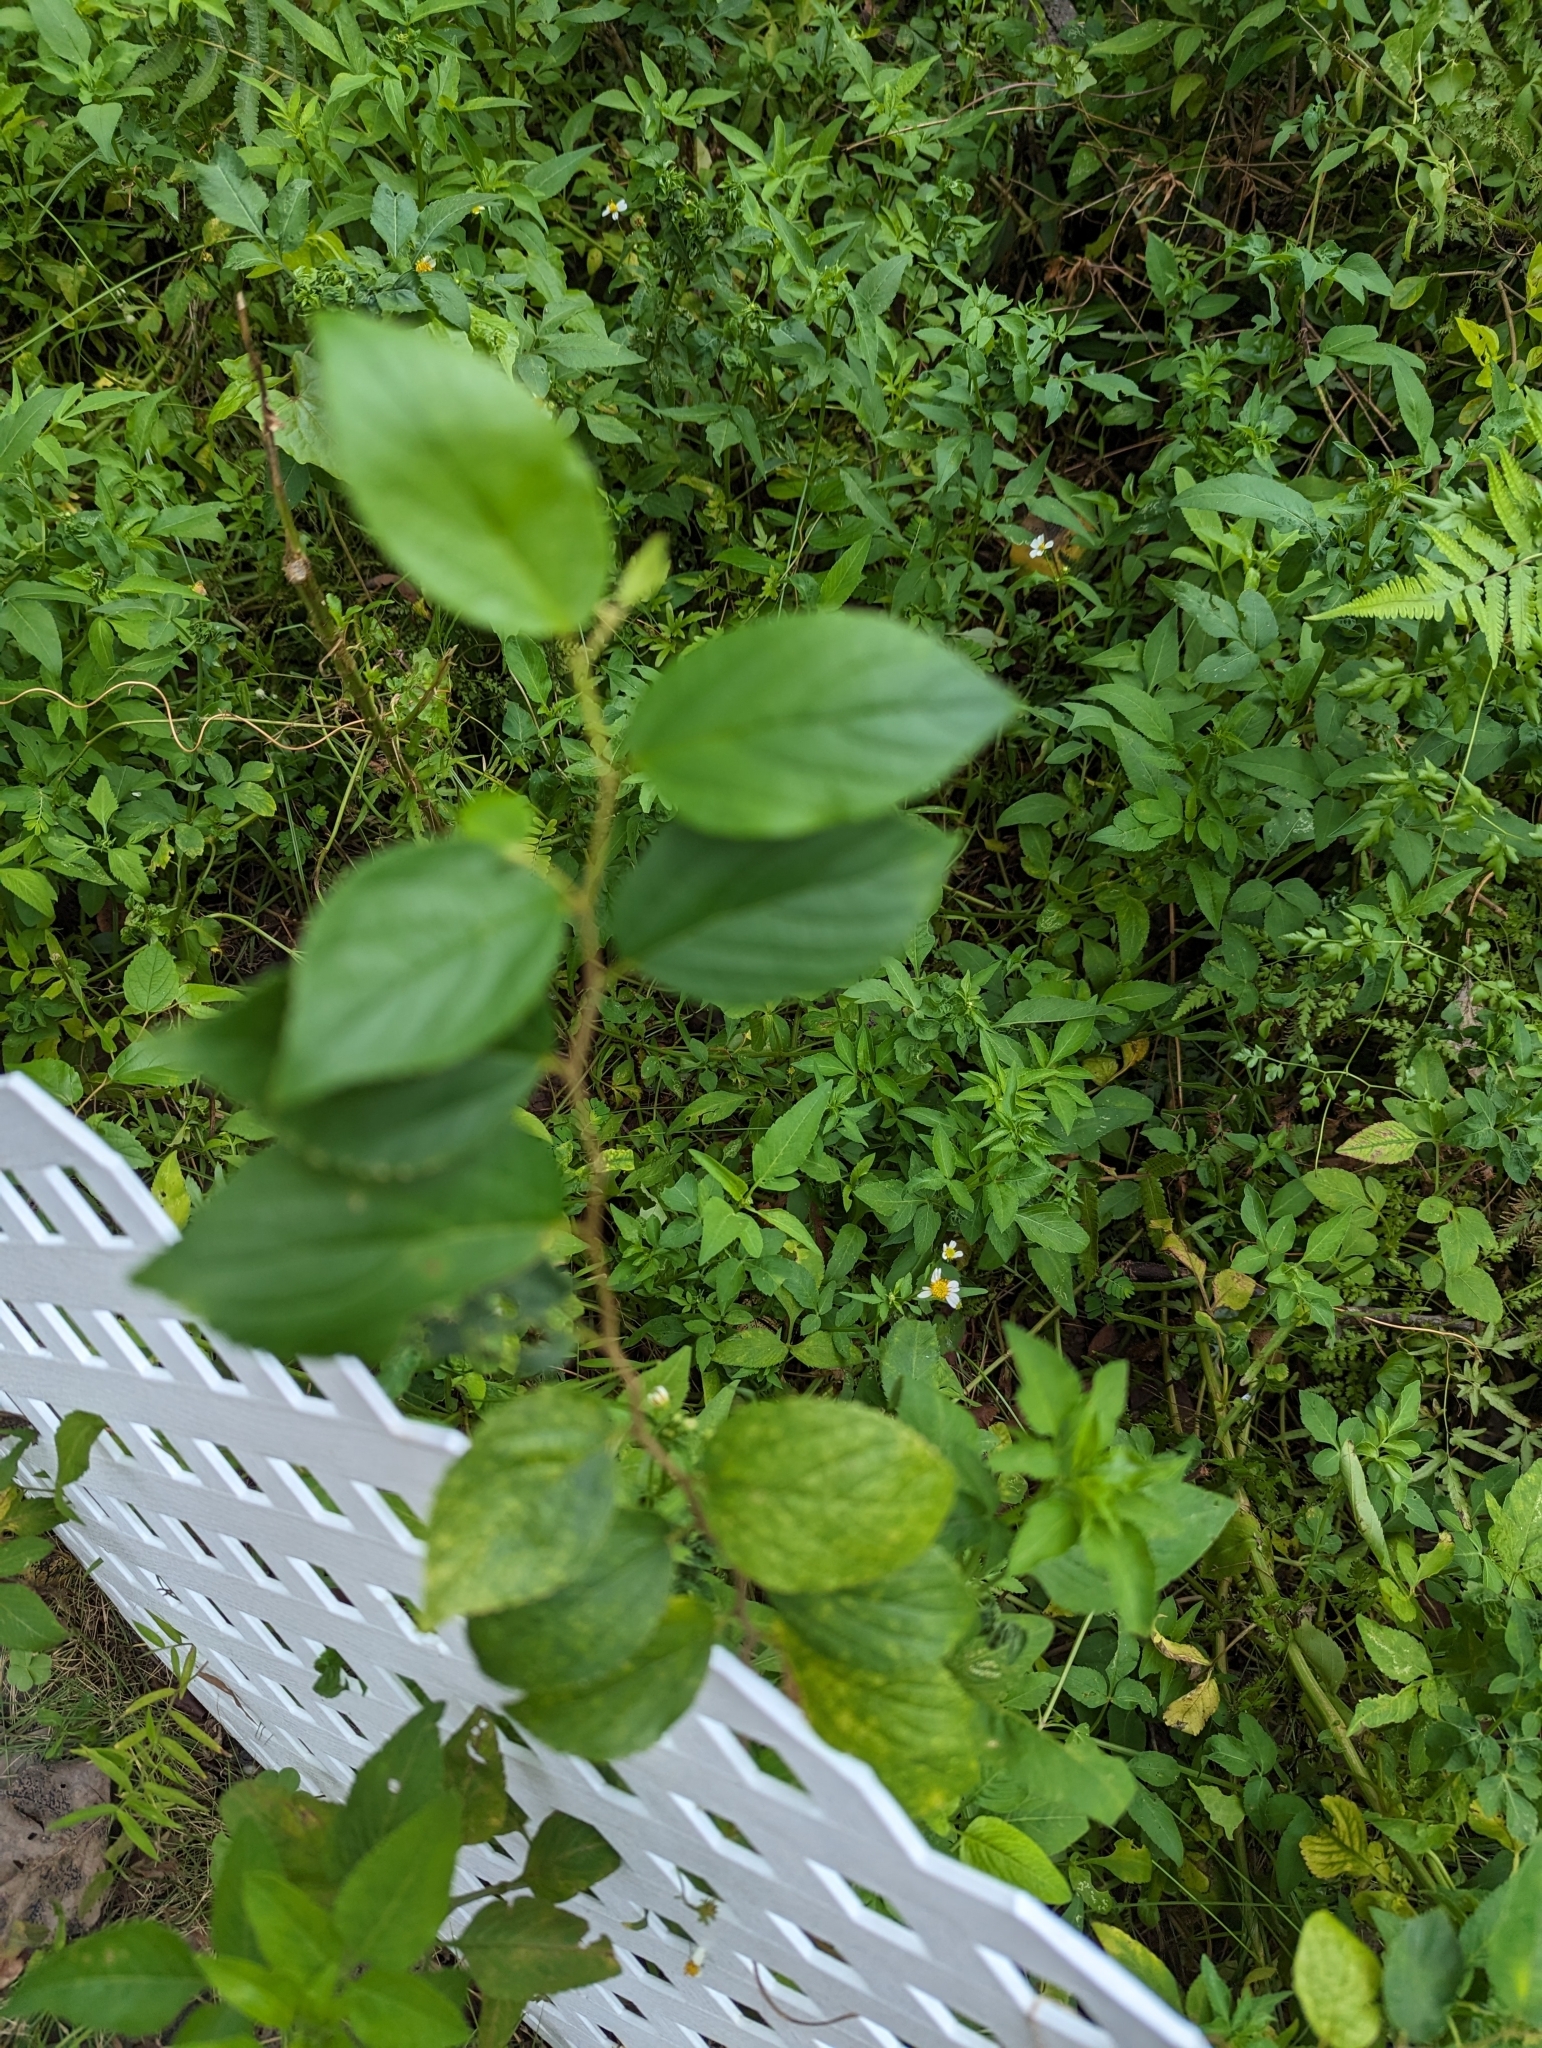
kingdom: Plantae
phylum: Tracheophyta
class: Magnoliopsida
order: Rosales
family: Cannabaceae
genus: Celtis
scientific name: Celtis sinensis
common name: Chinese hackberry
